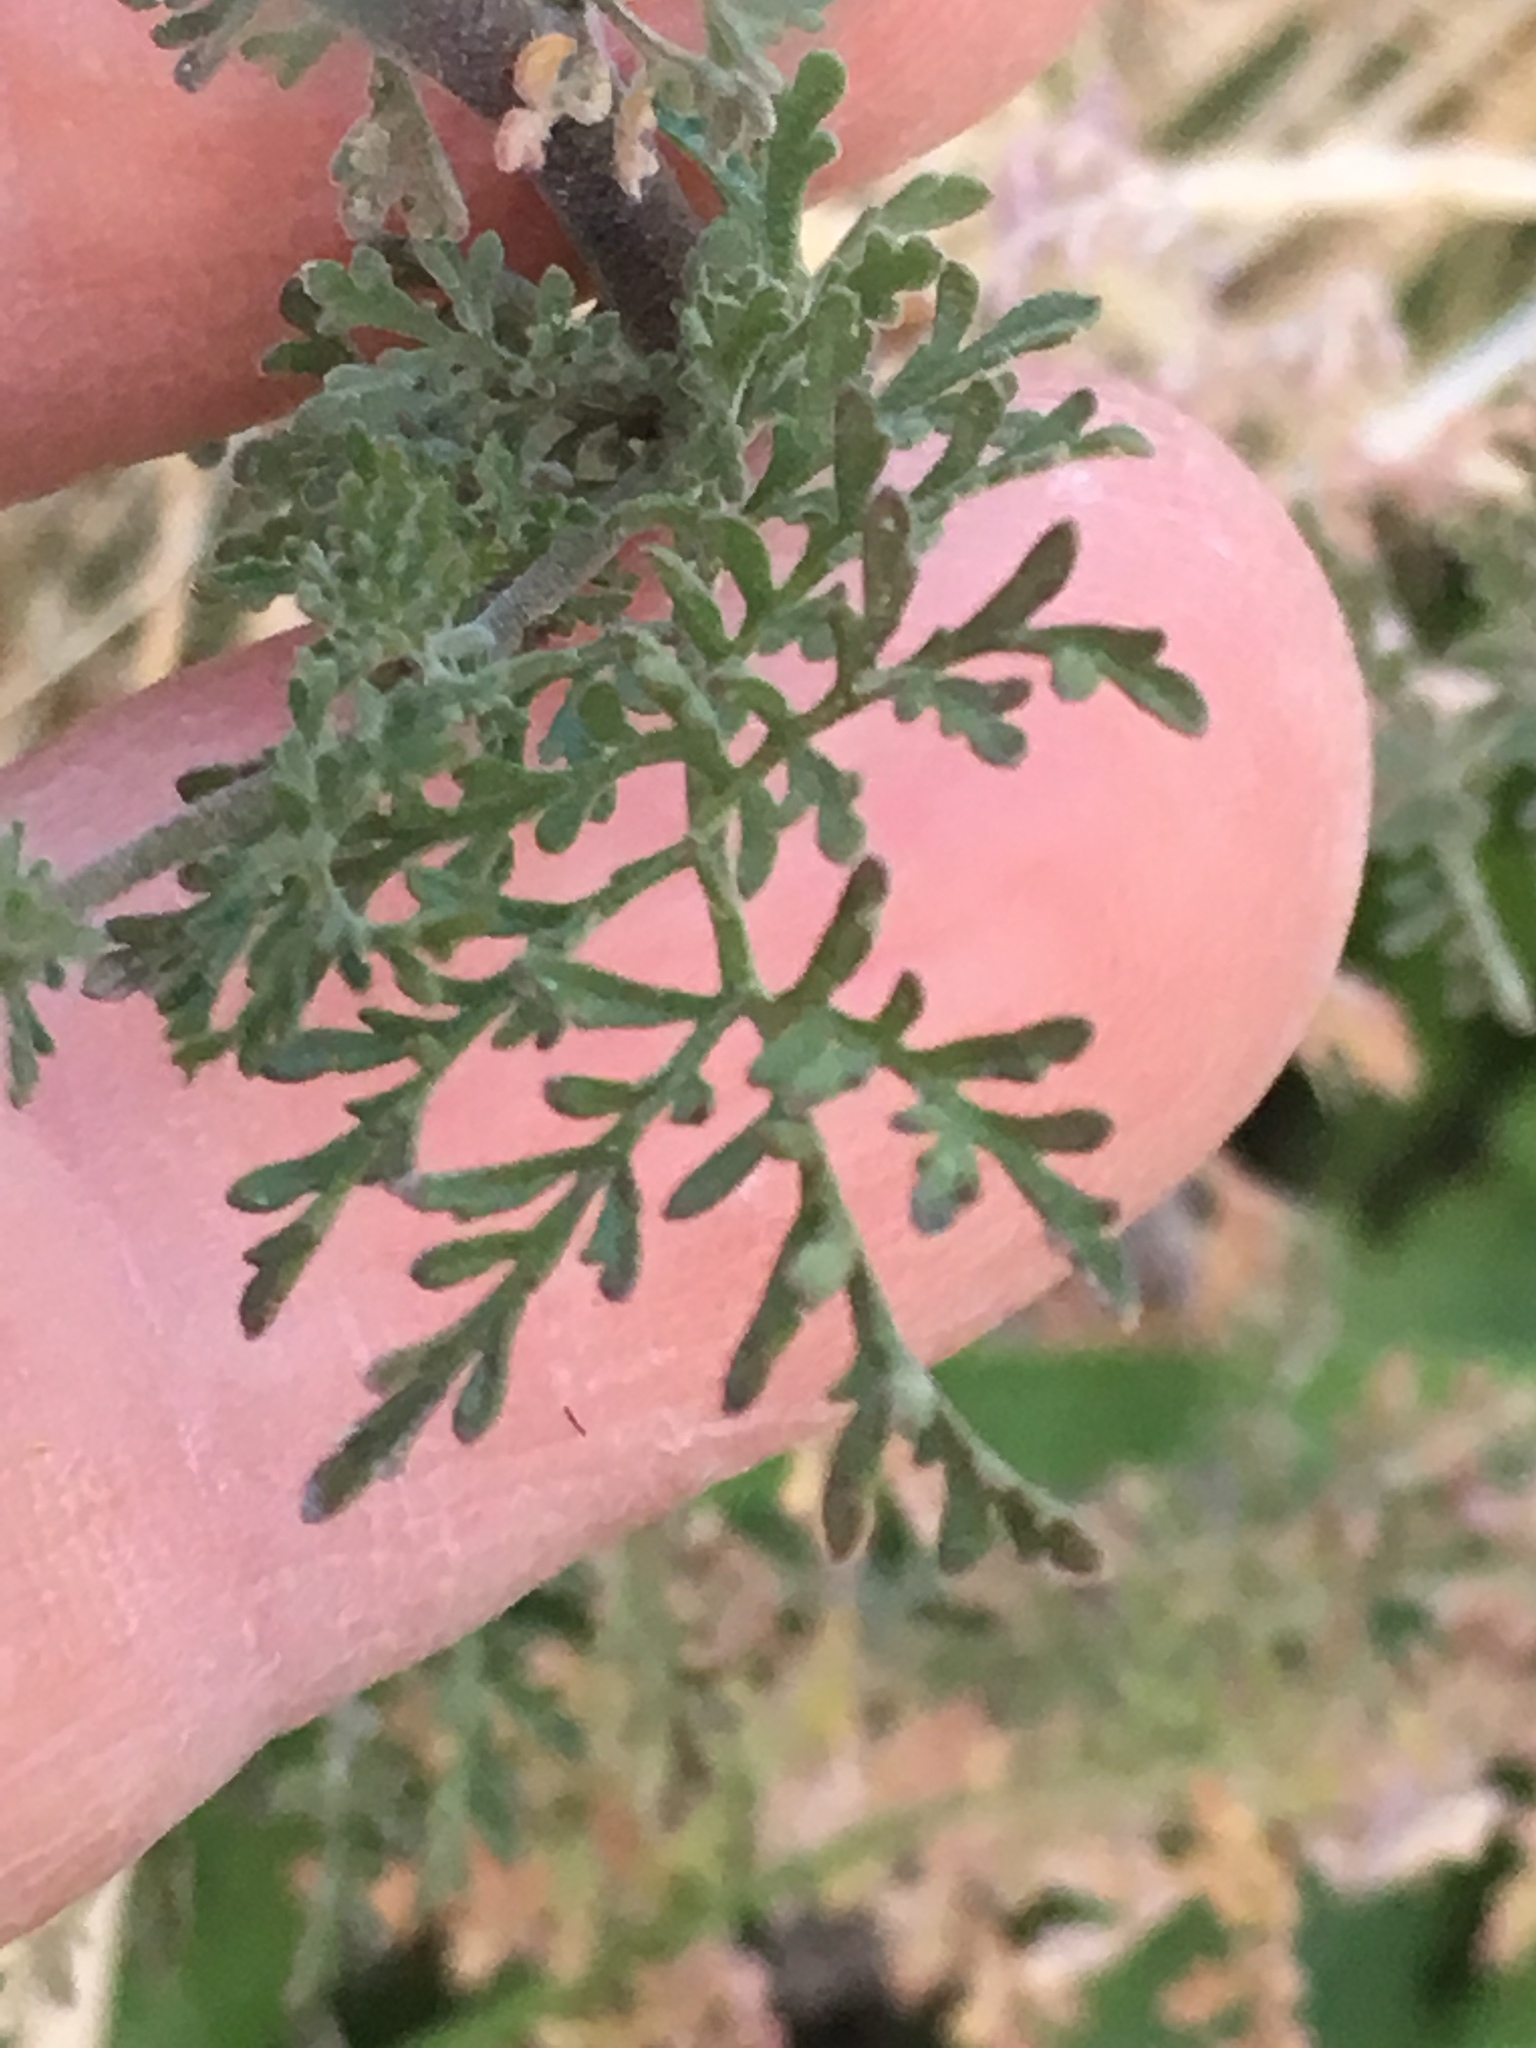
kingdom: Plantae
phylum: Tracheophyta
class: Magnoliopsida
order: Brassicales
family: Brassicaceae
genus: Descurainia
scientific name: Descurainia pinnata
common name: Western tansy mustard
